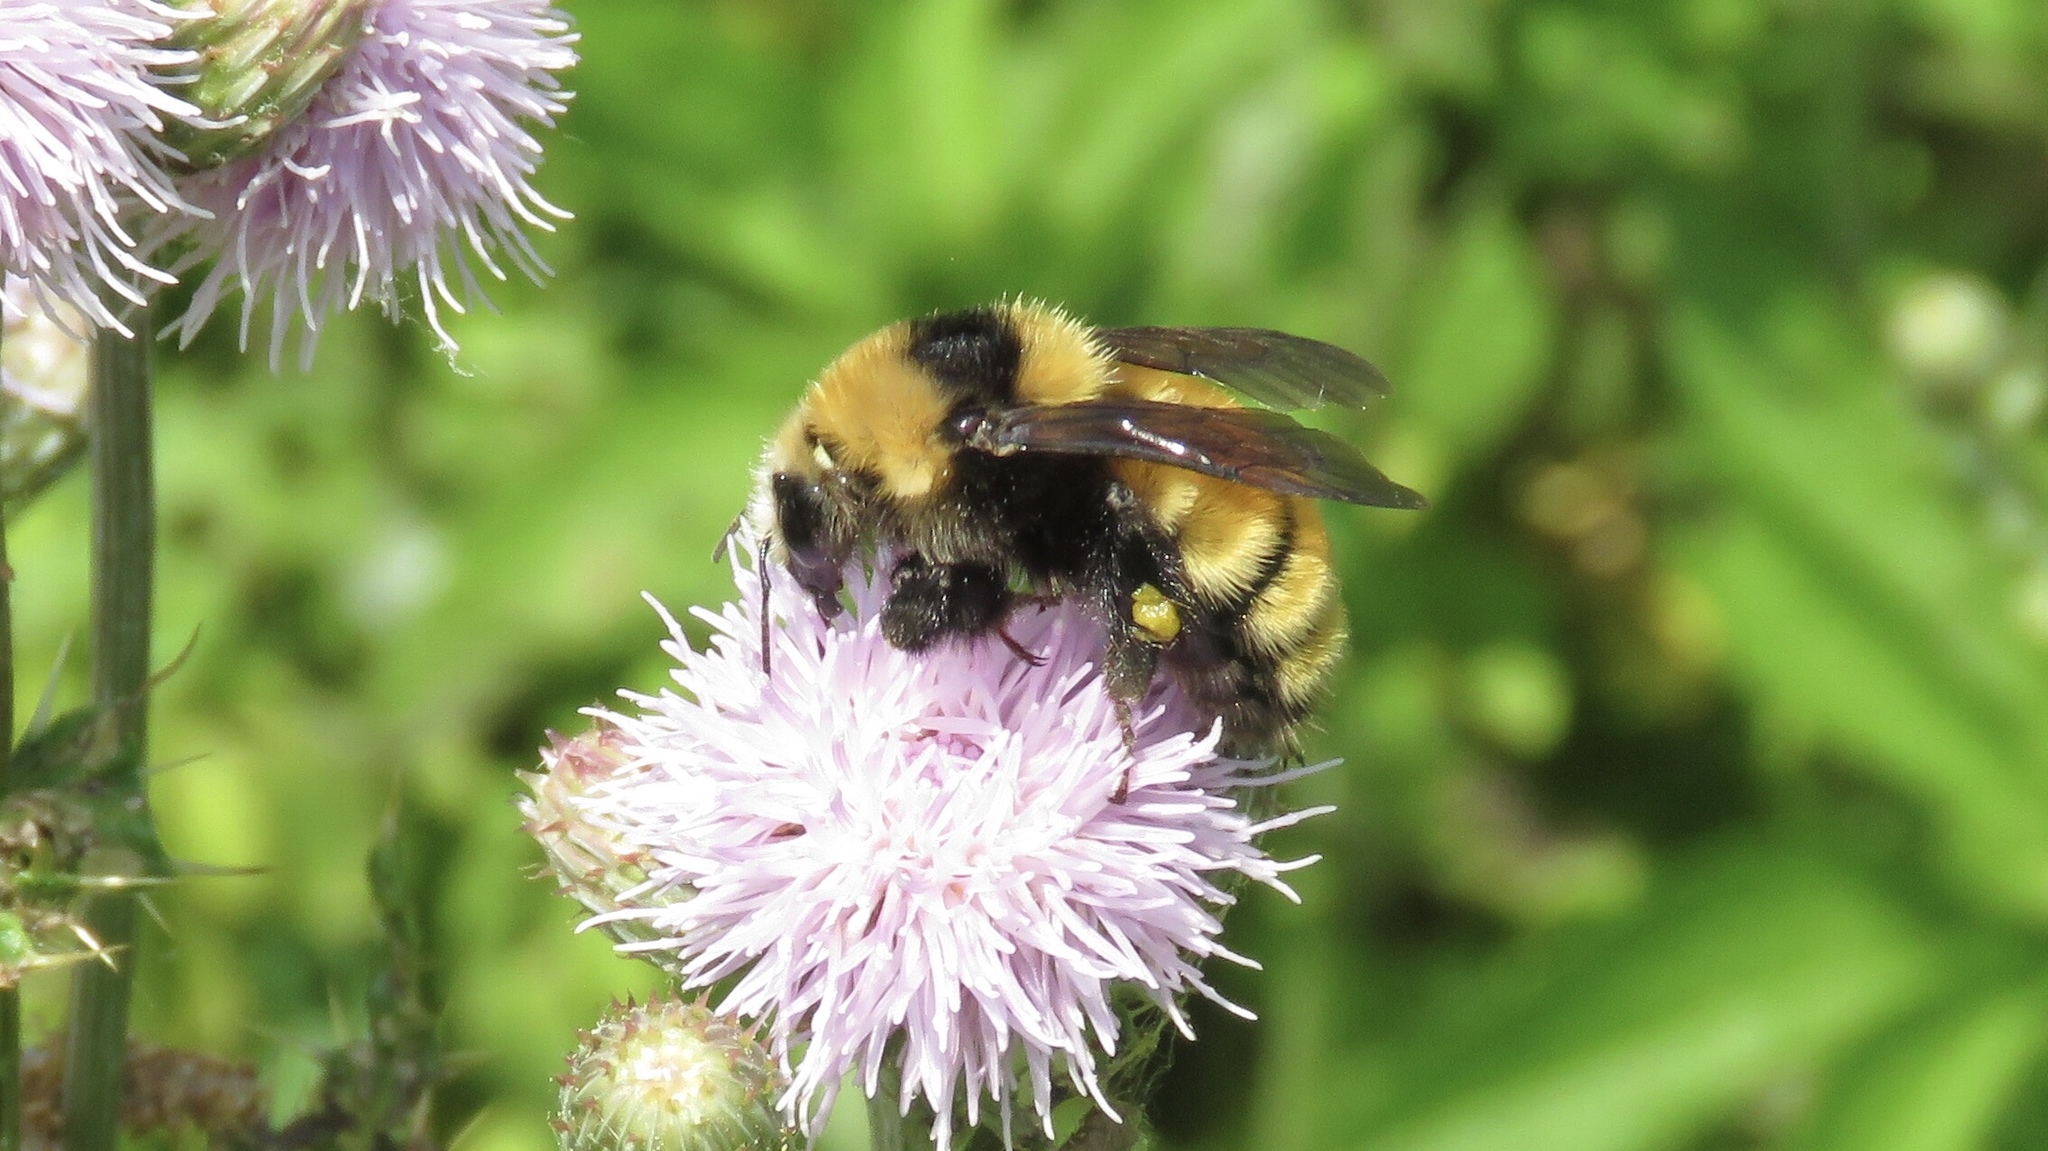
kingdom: Animalia
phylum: Arthropoda
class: Insecta
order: Hymenoptera
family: Apidae
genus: Bombus
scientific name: Bombus borealis
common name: Northern amber bumble bee
